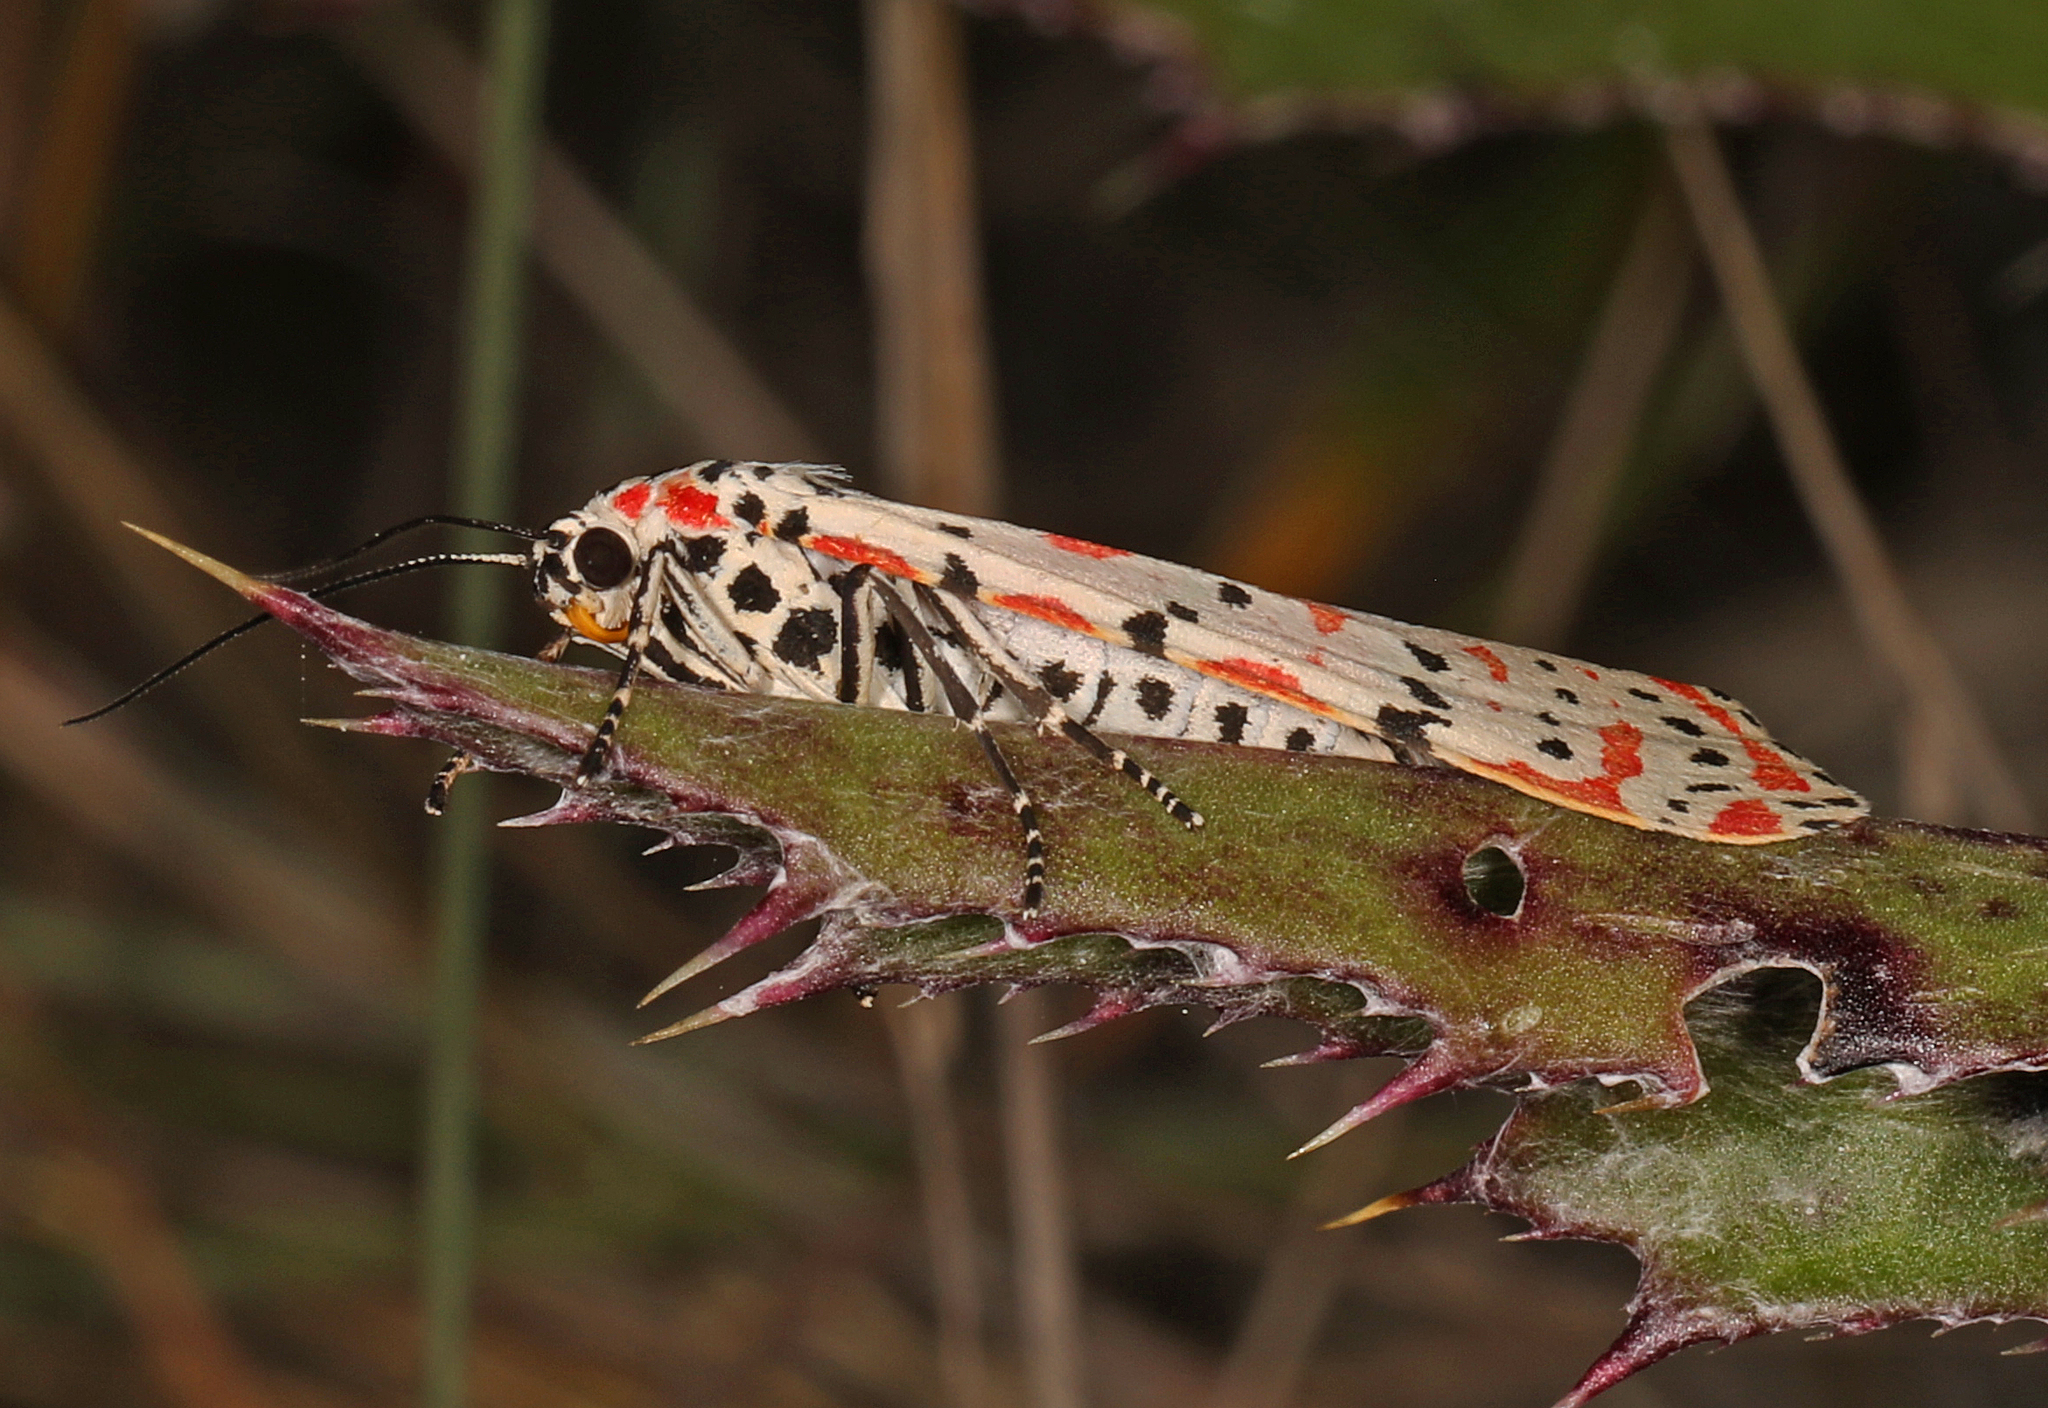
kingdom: Animalia
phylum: Arthropoda
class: Insecta
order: Lepidoptera
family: Erebidae
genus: Utetheisa
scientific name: Utetheisa ornatrix
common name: Beautiful utetheisa
